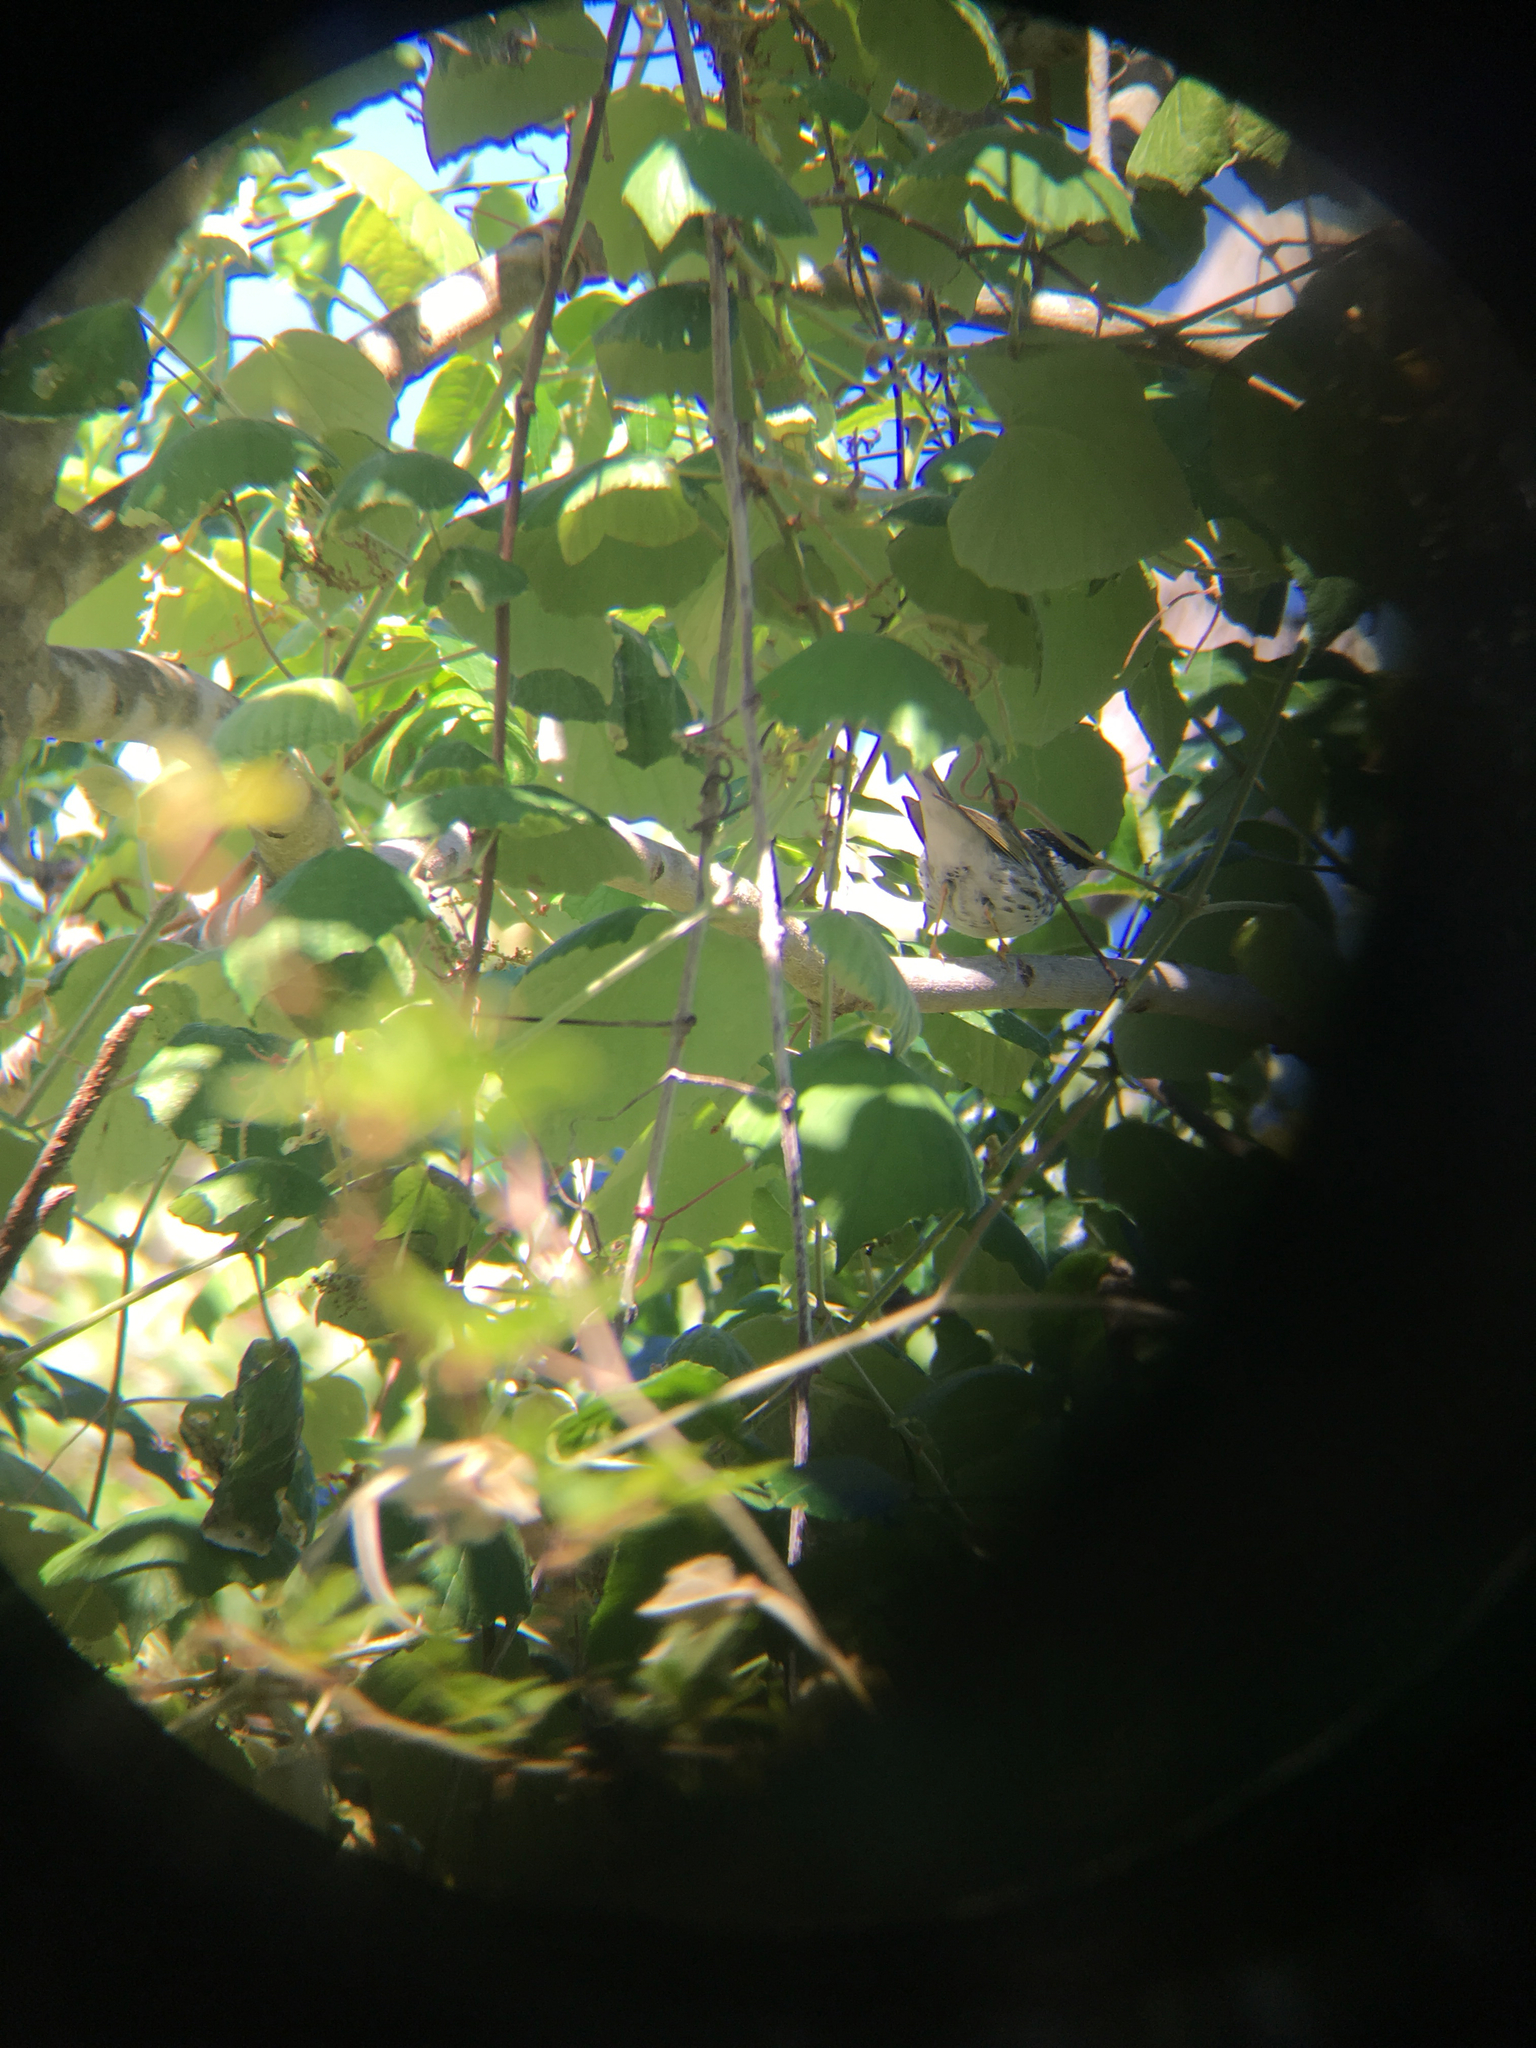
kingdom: Animalia
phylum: Chordata
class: Aves
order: Passeriformes
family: Parulidae
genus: Setophaga
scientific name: Setophaga striata
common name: Blackpoll warbler
